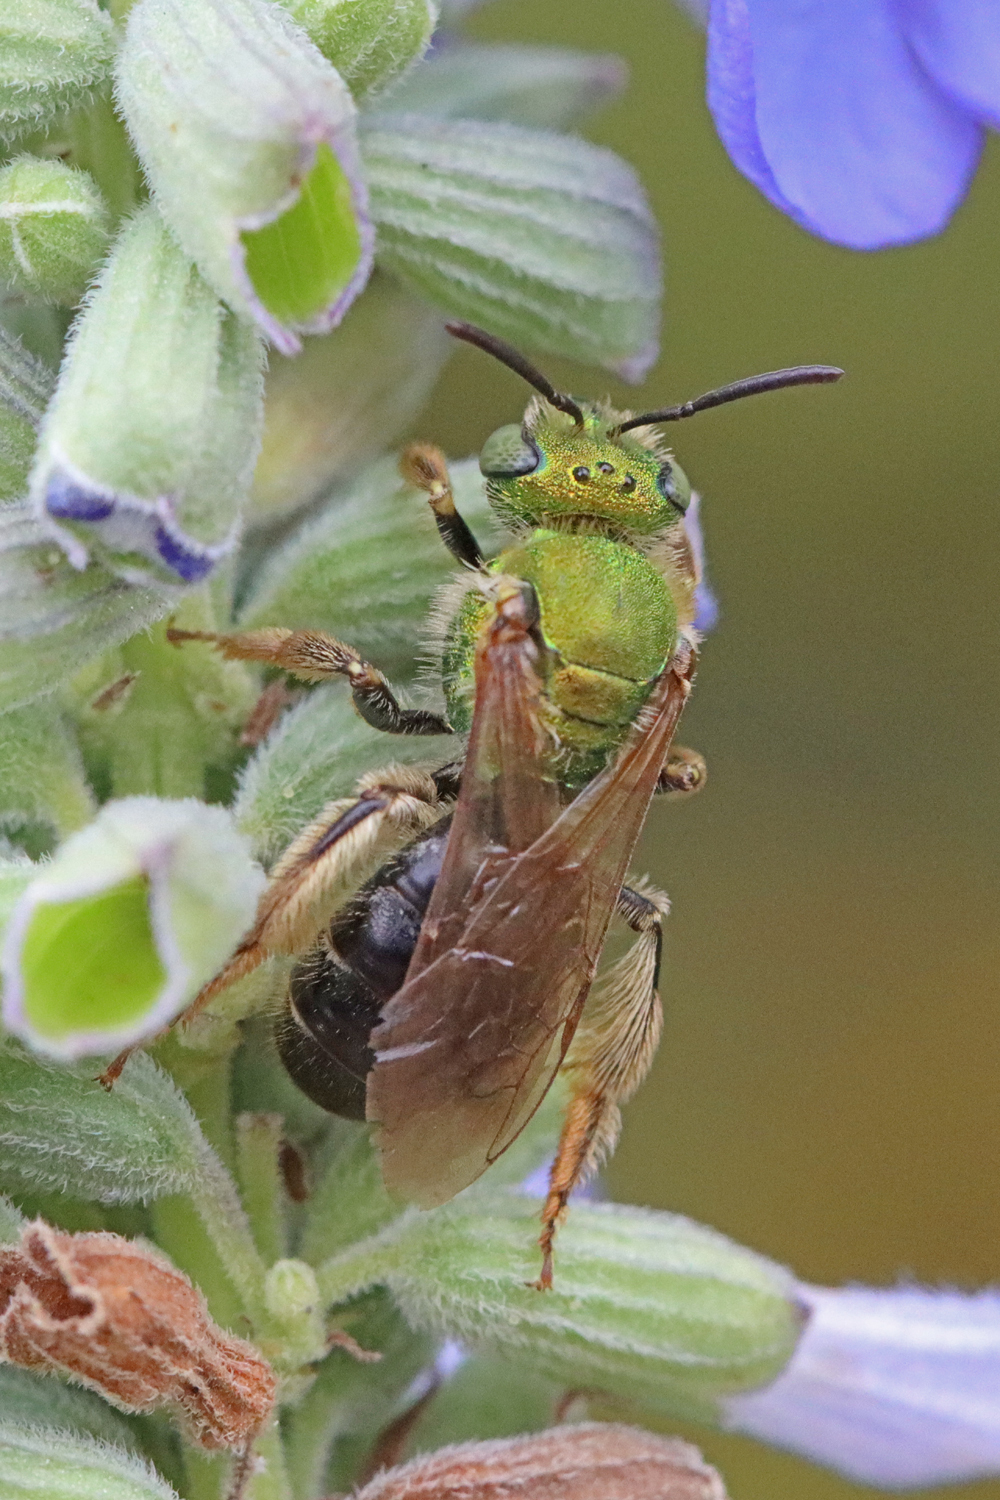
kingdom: Animalia
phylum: Arthropoda
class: Insecta
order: Hymenoptera
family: Halictidae
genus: Agapostemon
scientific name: Agapostemon virescens
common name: Bicolored striped sweat bee
